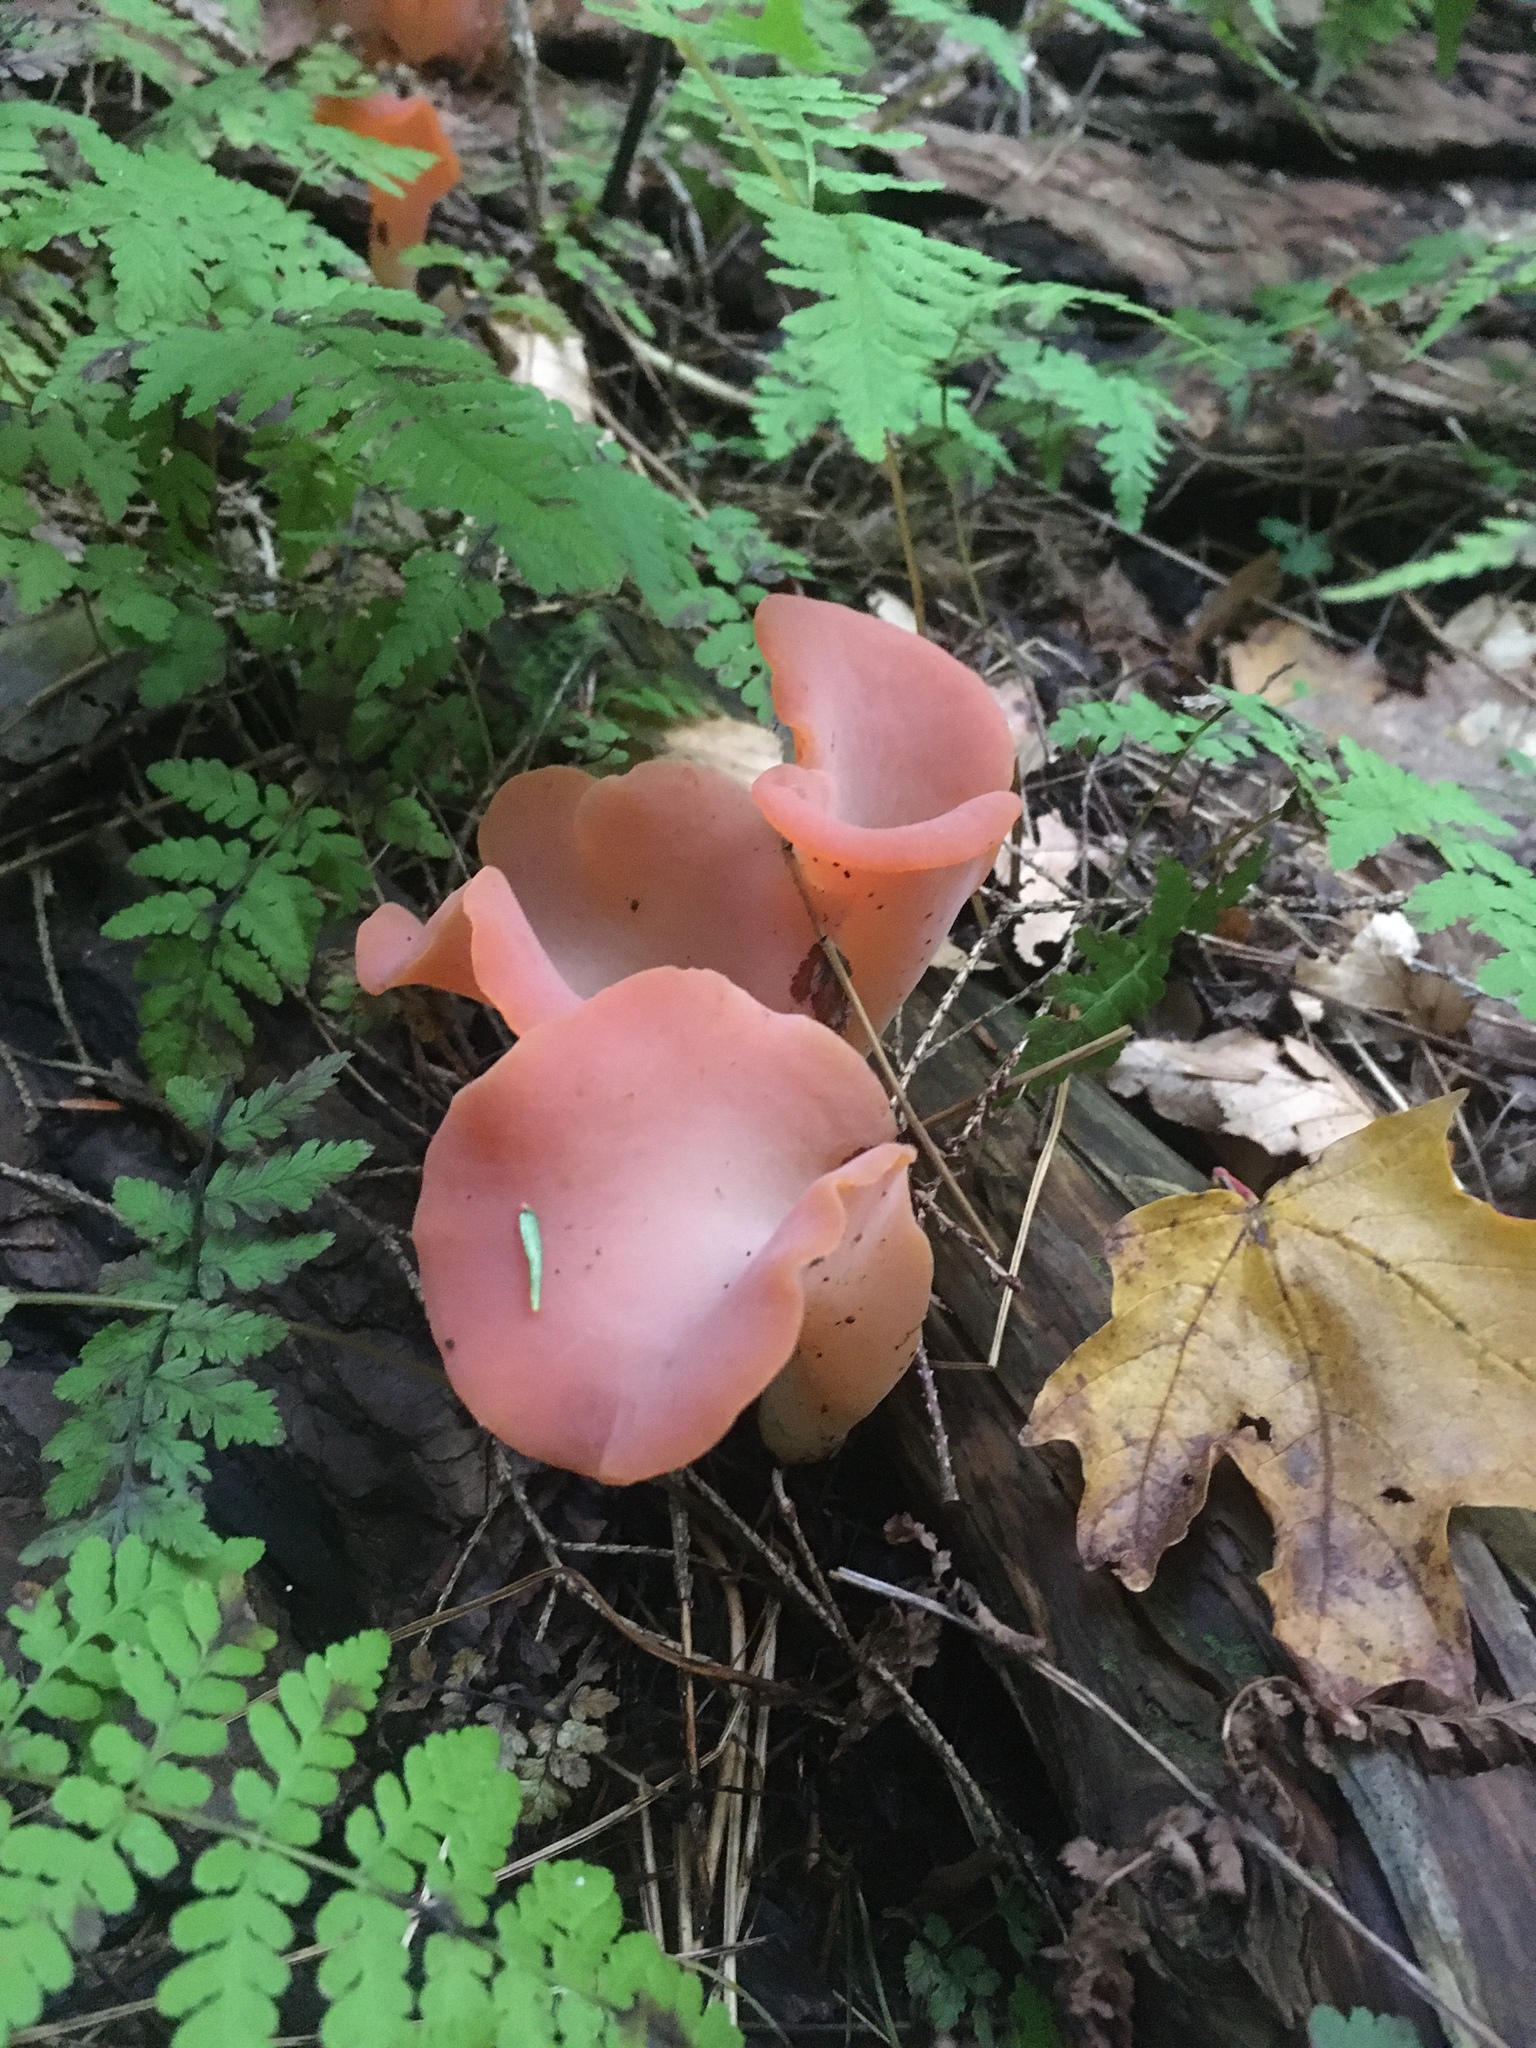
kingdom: Fungi
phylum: Basidiomycota
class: Agaricomycetes
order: Auriculariales
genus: Guepinia
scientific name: Guepinia helvelloides
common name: Salmon salad
